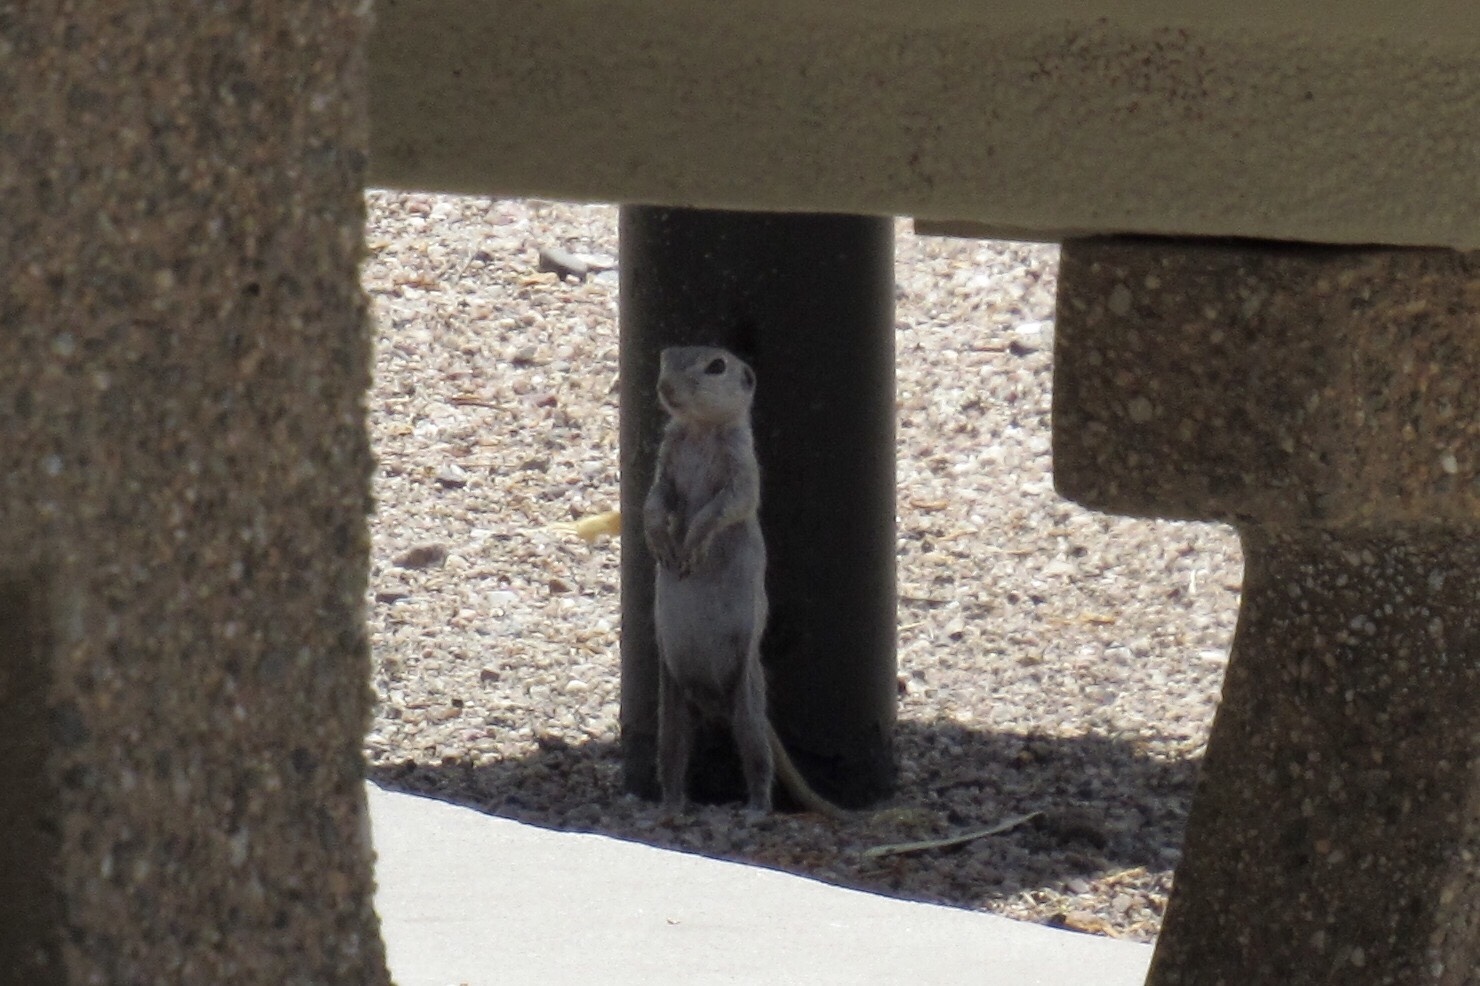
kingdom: Animalia
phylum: Chordata
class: Mammalia
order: Rodentia
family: Sciuridae
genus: Xerospermophilus
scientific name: Xerospermophilus tereticaudus
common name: Round-tailed ground squirrel
